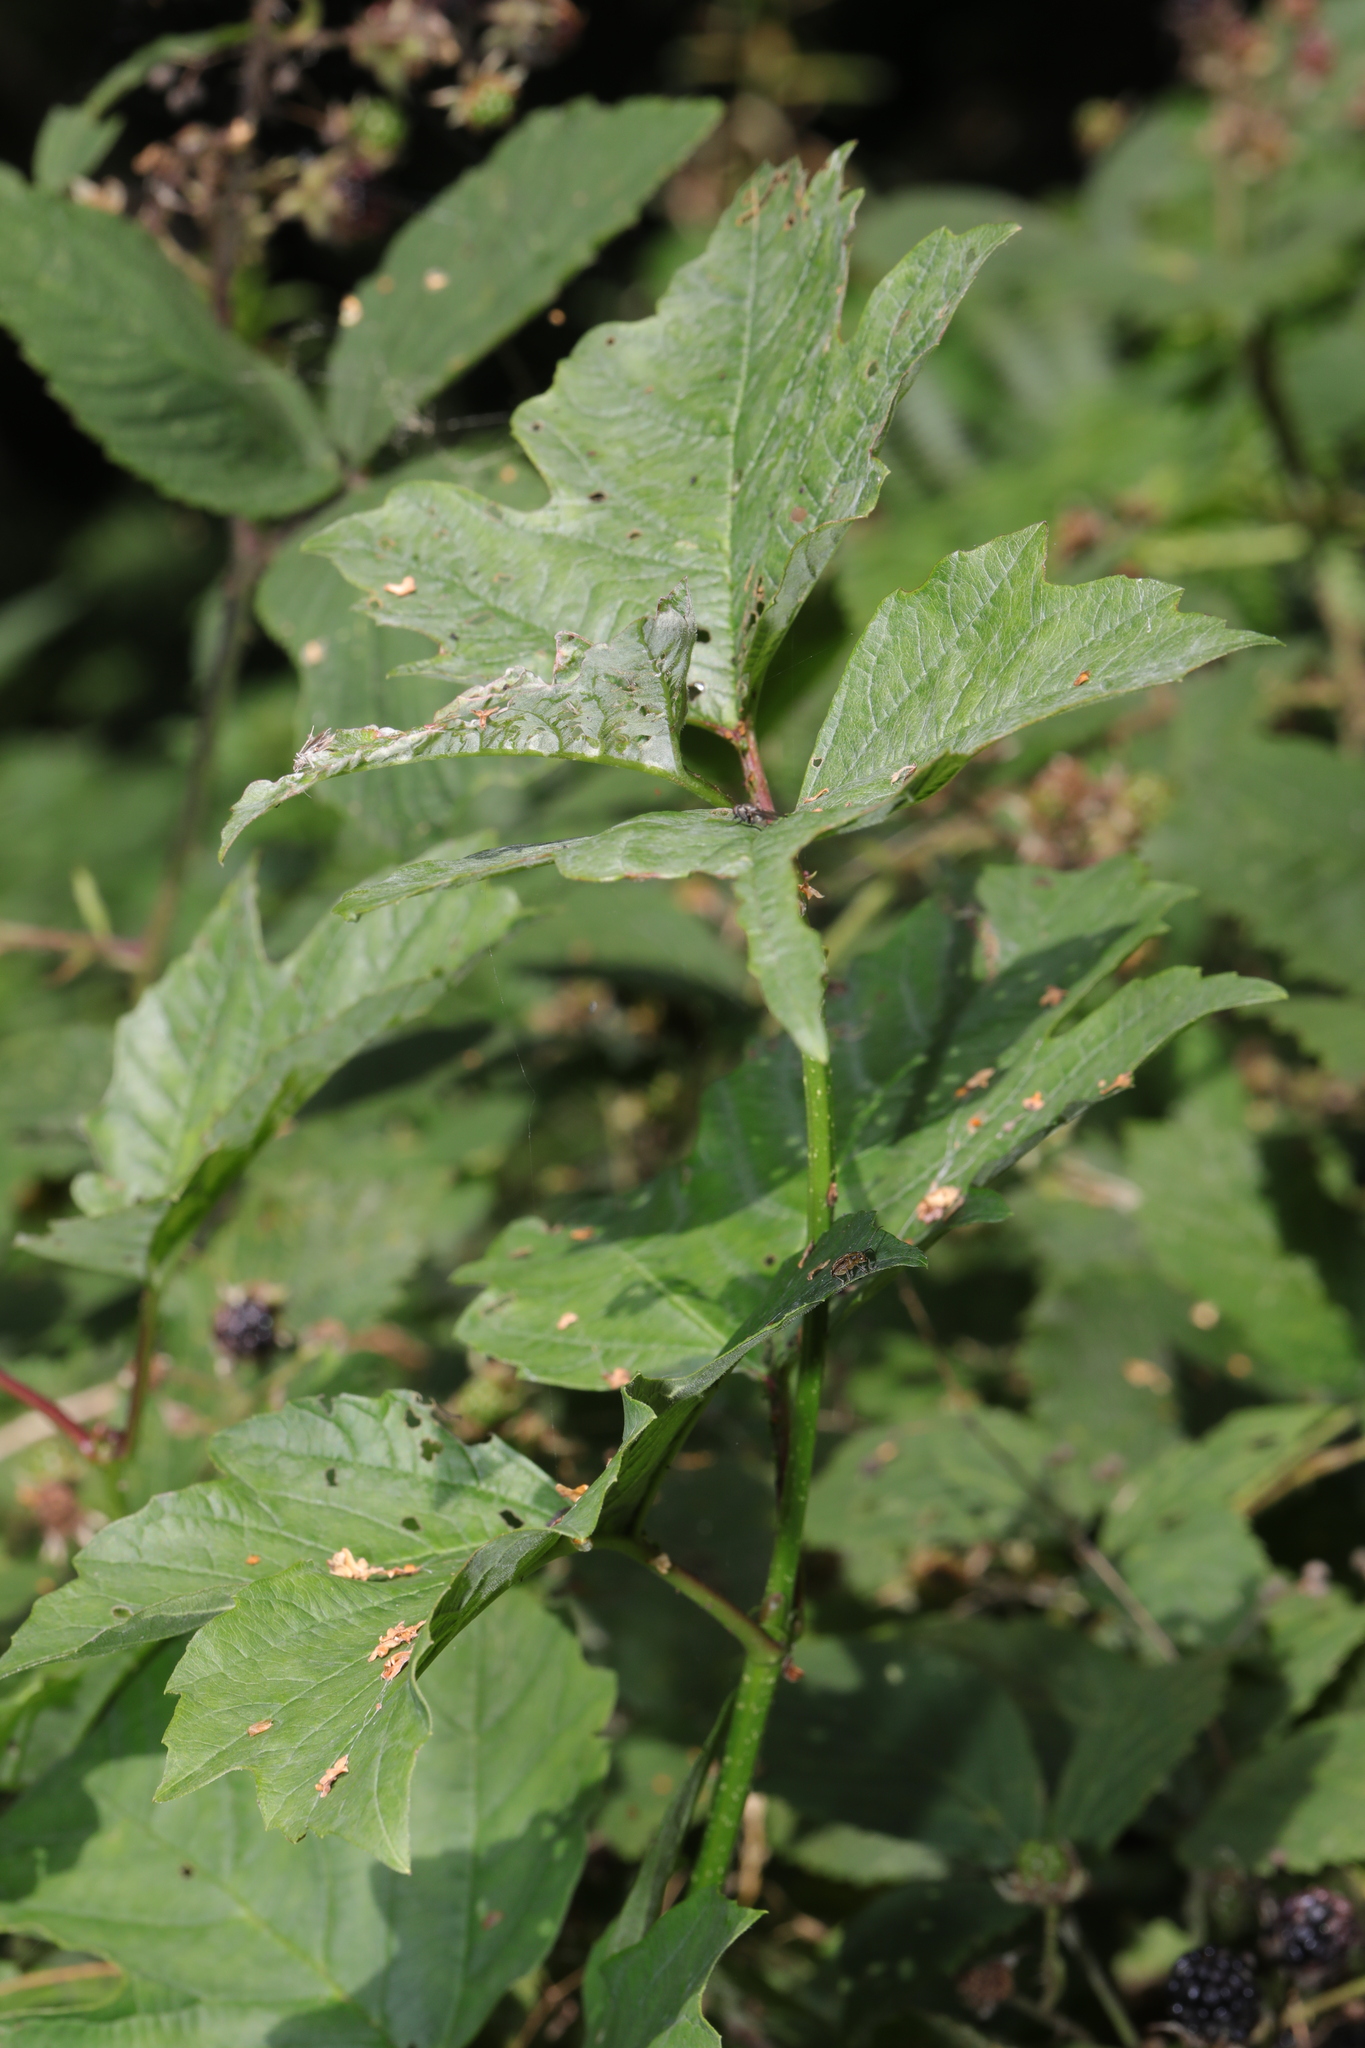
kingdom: Plantae
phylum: Tracheophyta
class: Magnoliopsida
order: Dipsacales
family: Viburnaceae
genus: Viburnum
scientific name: Viburnum opulus
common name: Guelder-rose
